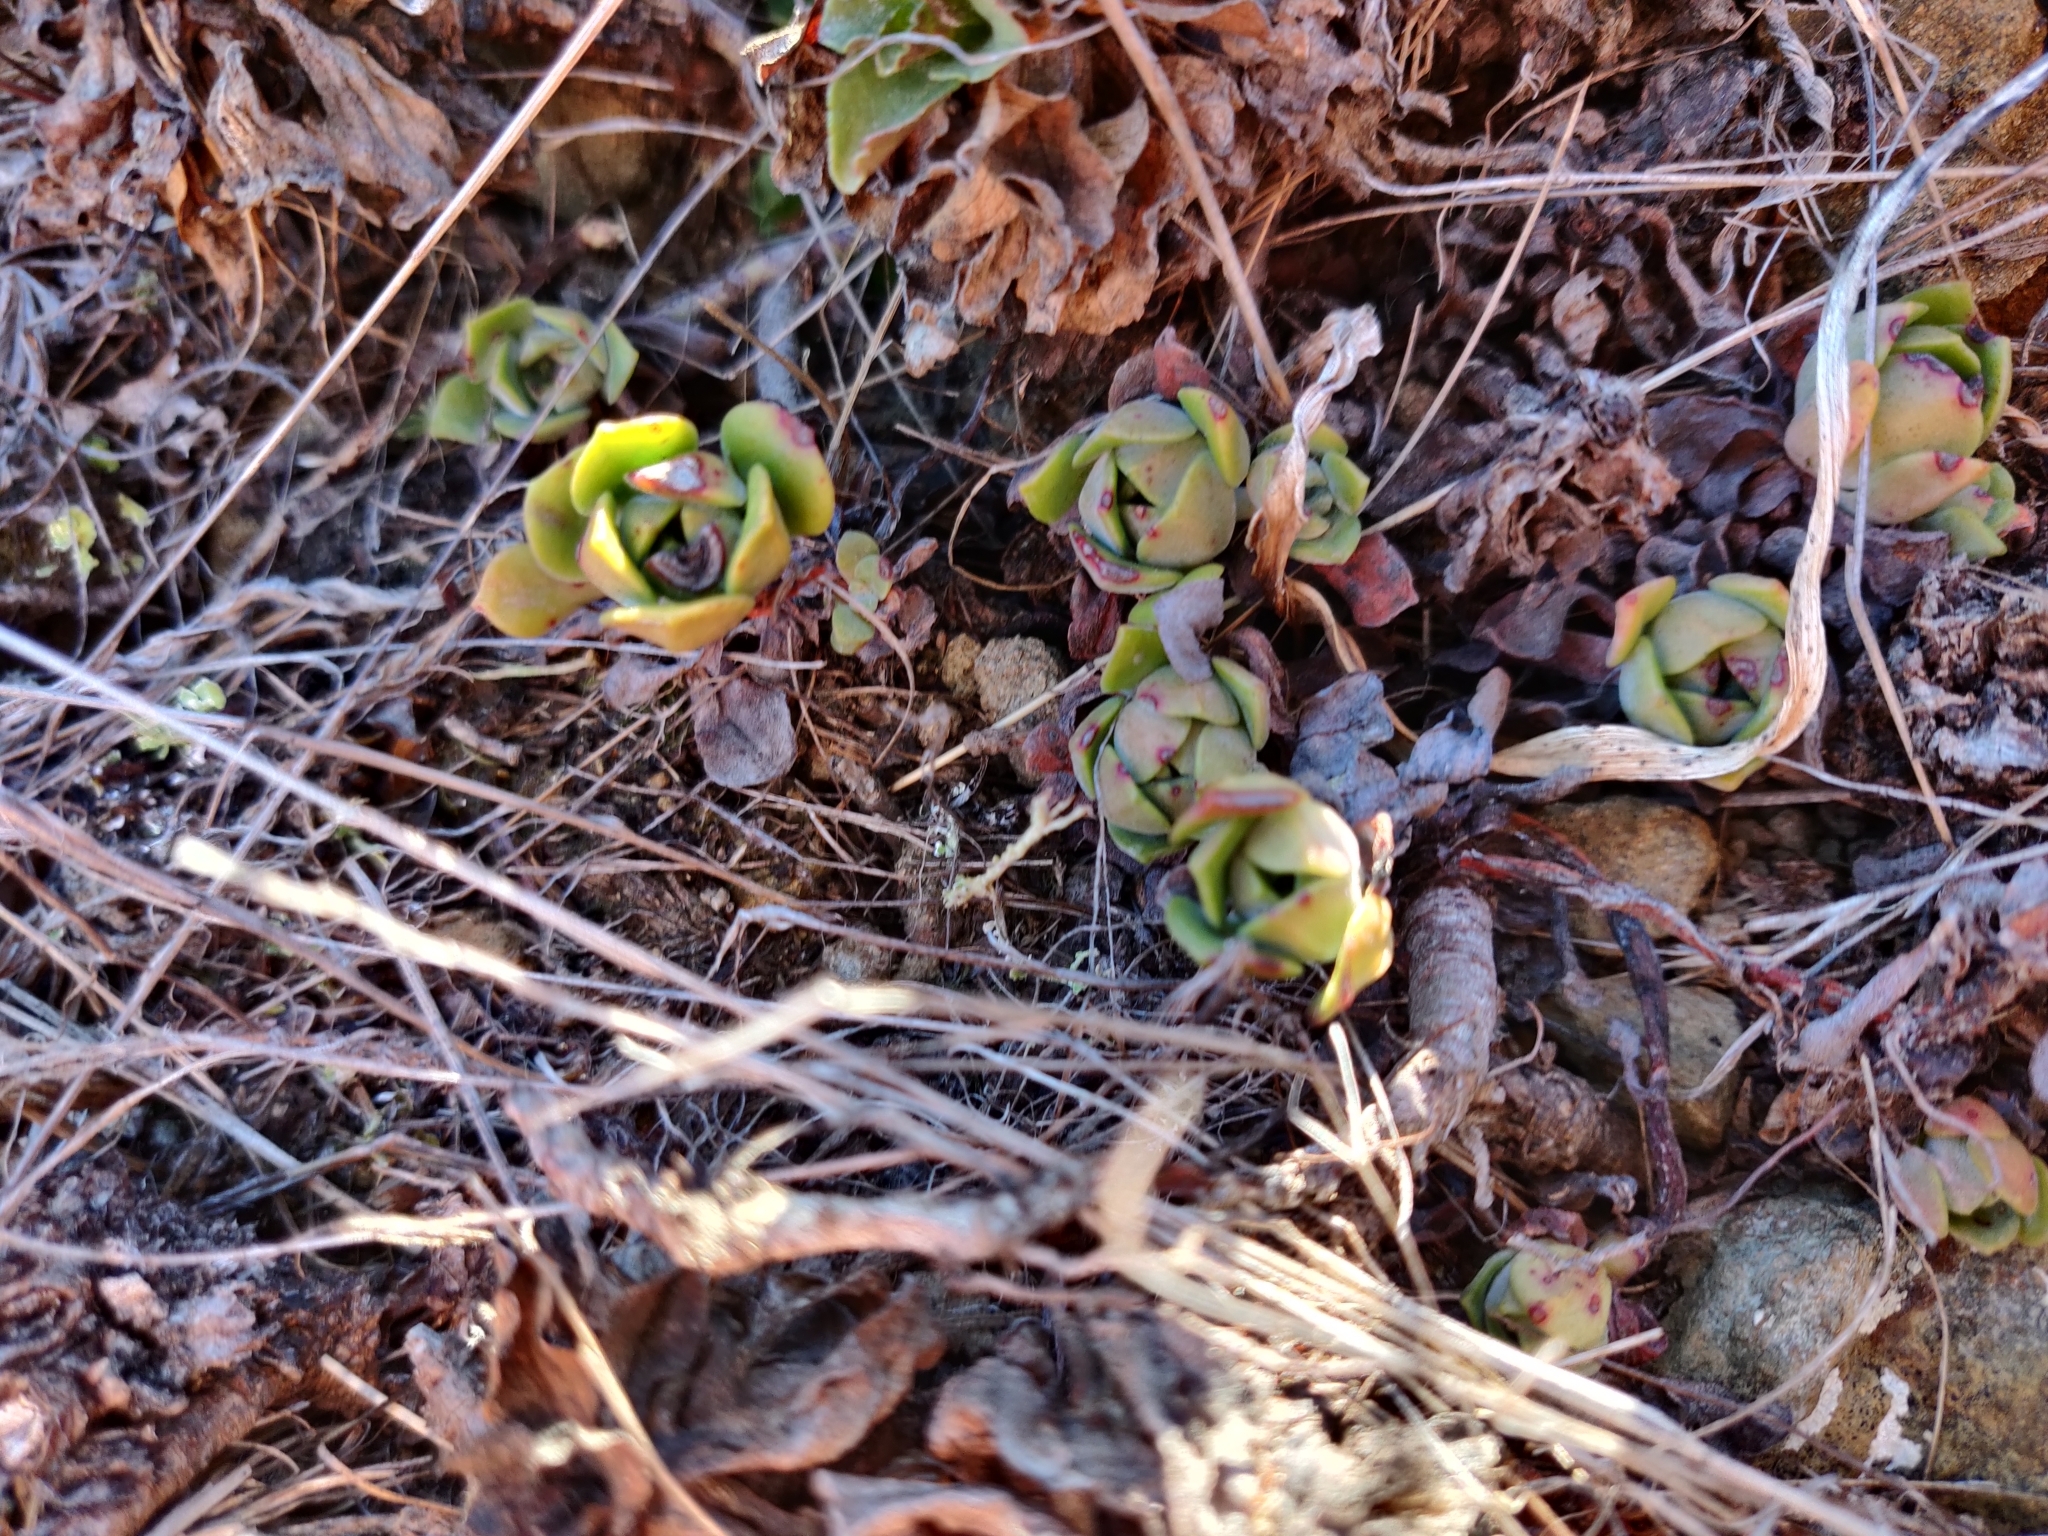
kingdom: Plantae
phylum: Tracheophyta
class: Magnoliopsida
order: Saxifragales
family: Crassulaceae
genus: Sedum
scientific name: Sedum spathulifolium
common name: Colorado stonecrop
